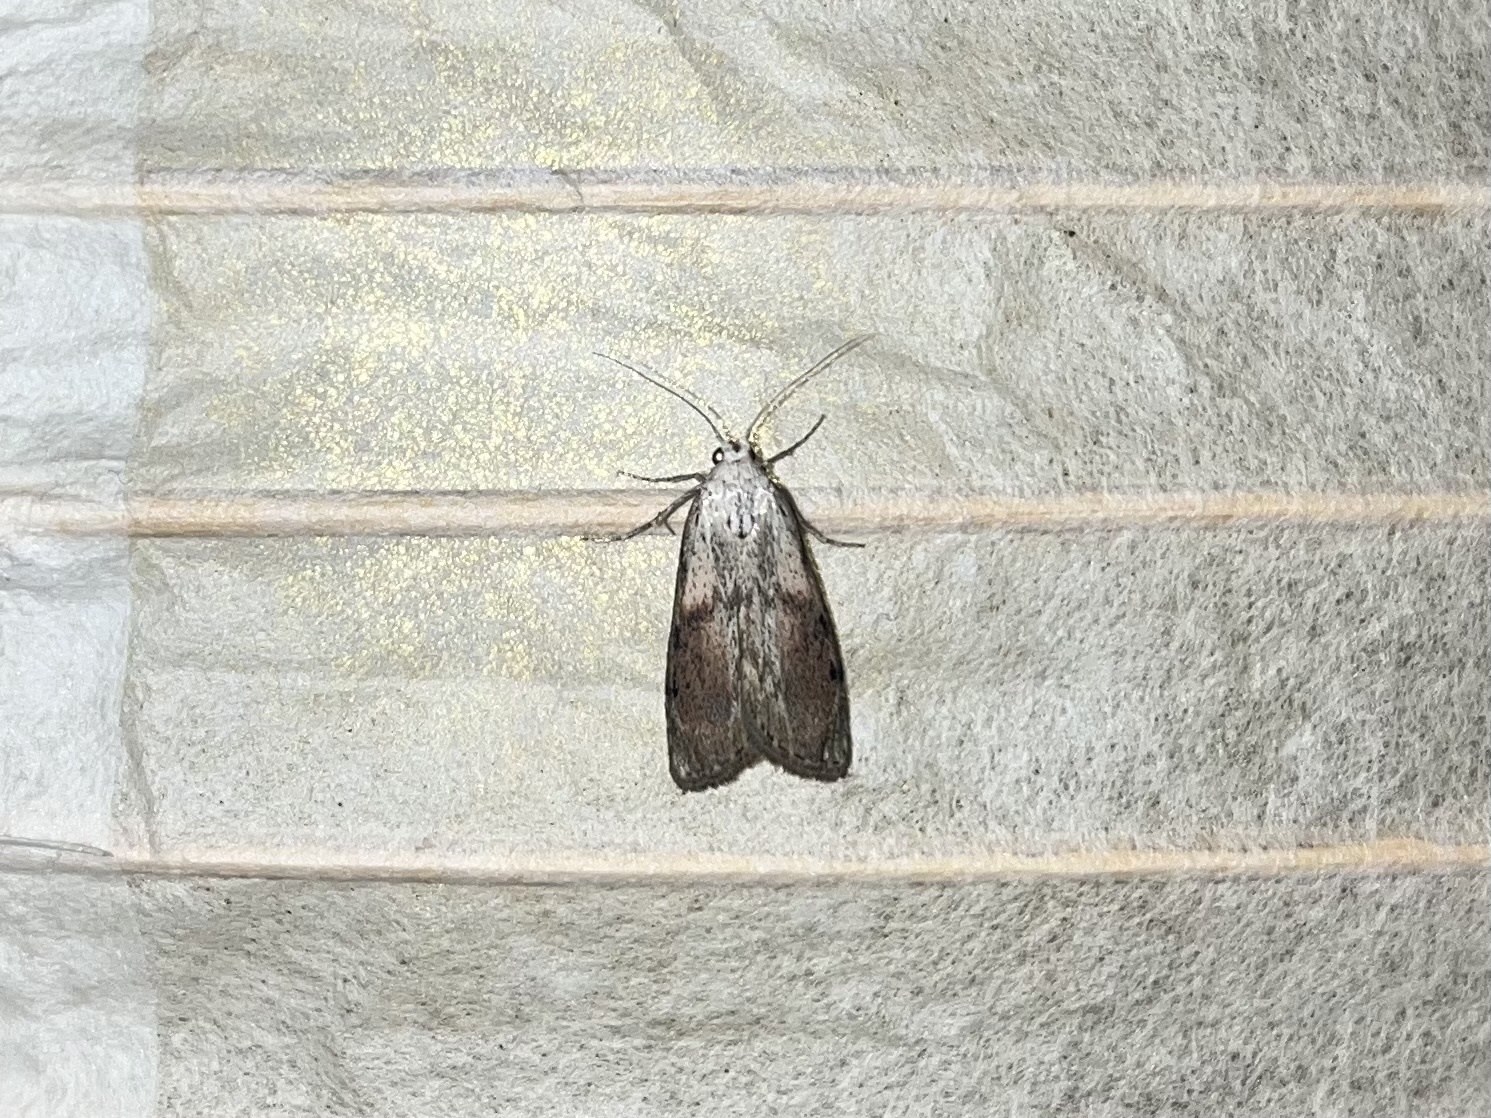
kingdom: Animalia
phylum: Arthropoda
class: Insecta
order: Lepidoptera
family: Pyralidae
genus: Aphomia
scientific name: Aphomia sociella
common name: Bee moth
